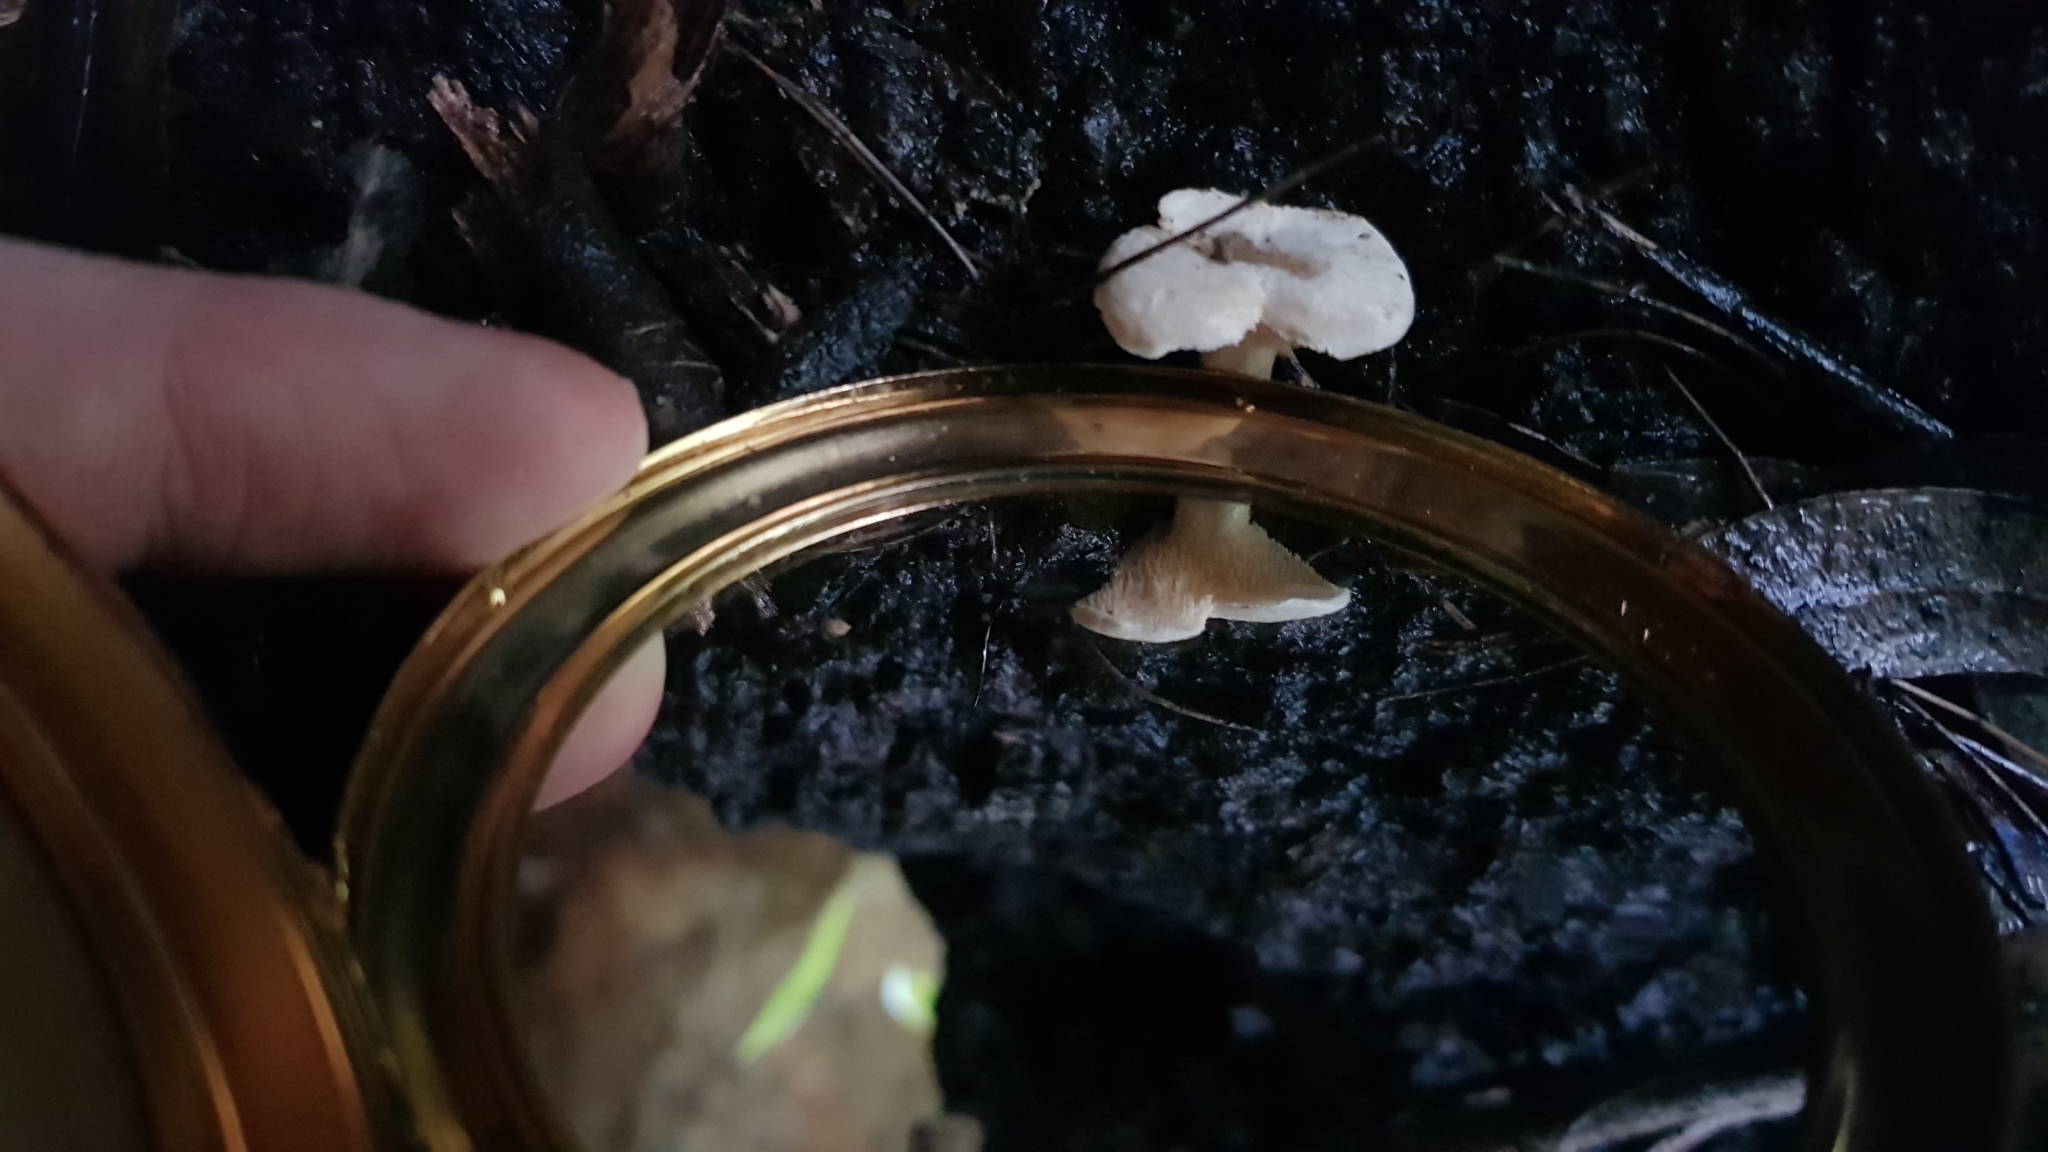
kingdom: Fungi
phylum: Basidiomycota
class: Agaricomycetes
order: Cantharellales
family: Hydnaceae
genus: Hydnum
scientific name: Hydnum ambustum
